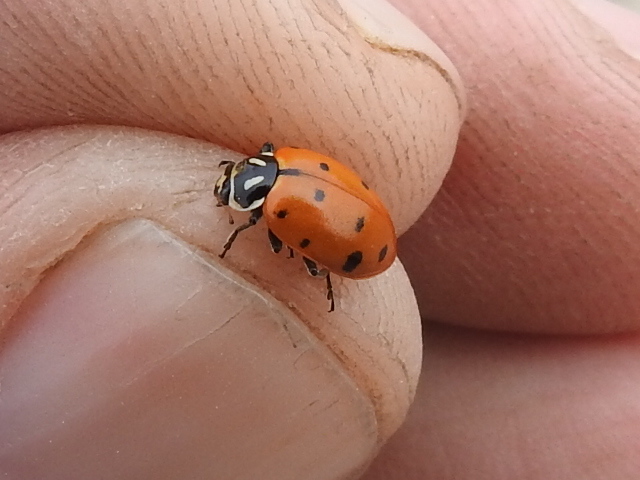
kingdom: Animalia
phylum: Arthropoda
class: Insecta
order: Coleoptera
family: Coccinellidae
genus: Hippodamia
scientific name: Hippodamia convergens
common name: Convergent lady beetle
